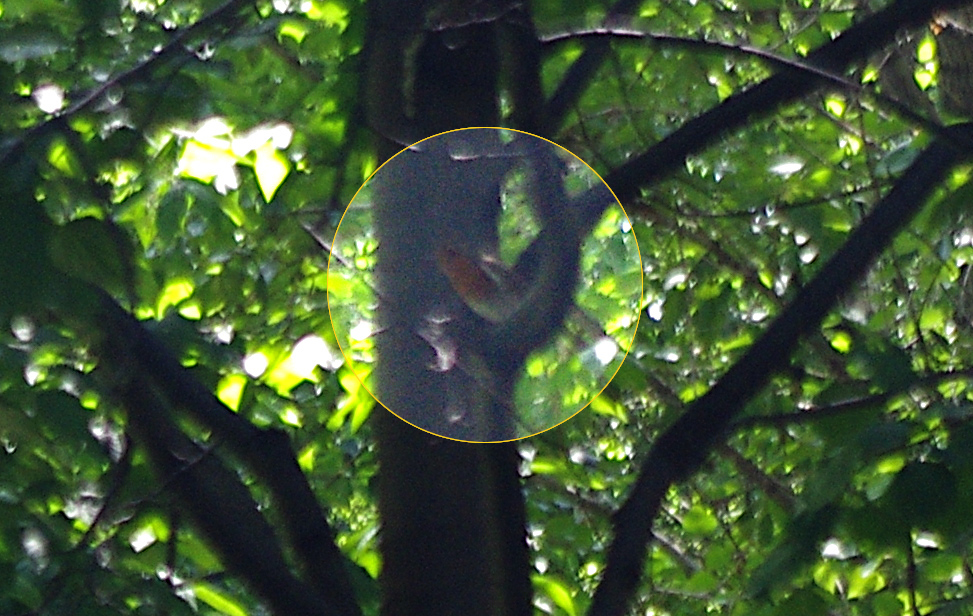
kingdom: Animalia
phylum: Chordata
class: Aves
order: Passeriformes
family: Muscicapidae
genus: Erithacus
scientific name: Erithacus rubecula
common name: European robin
